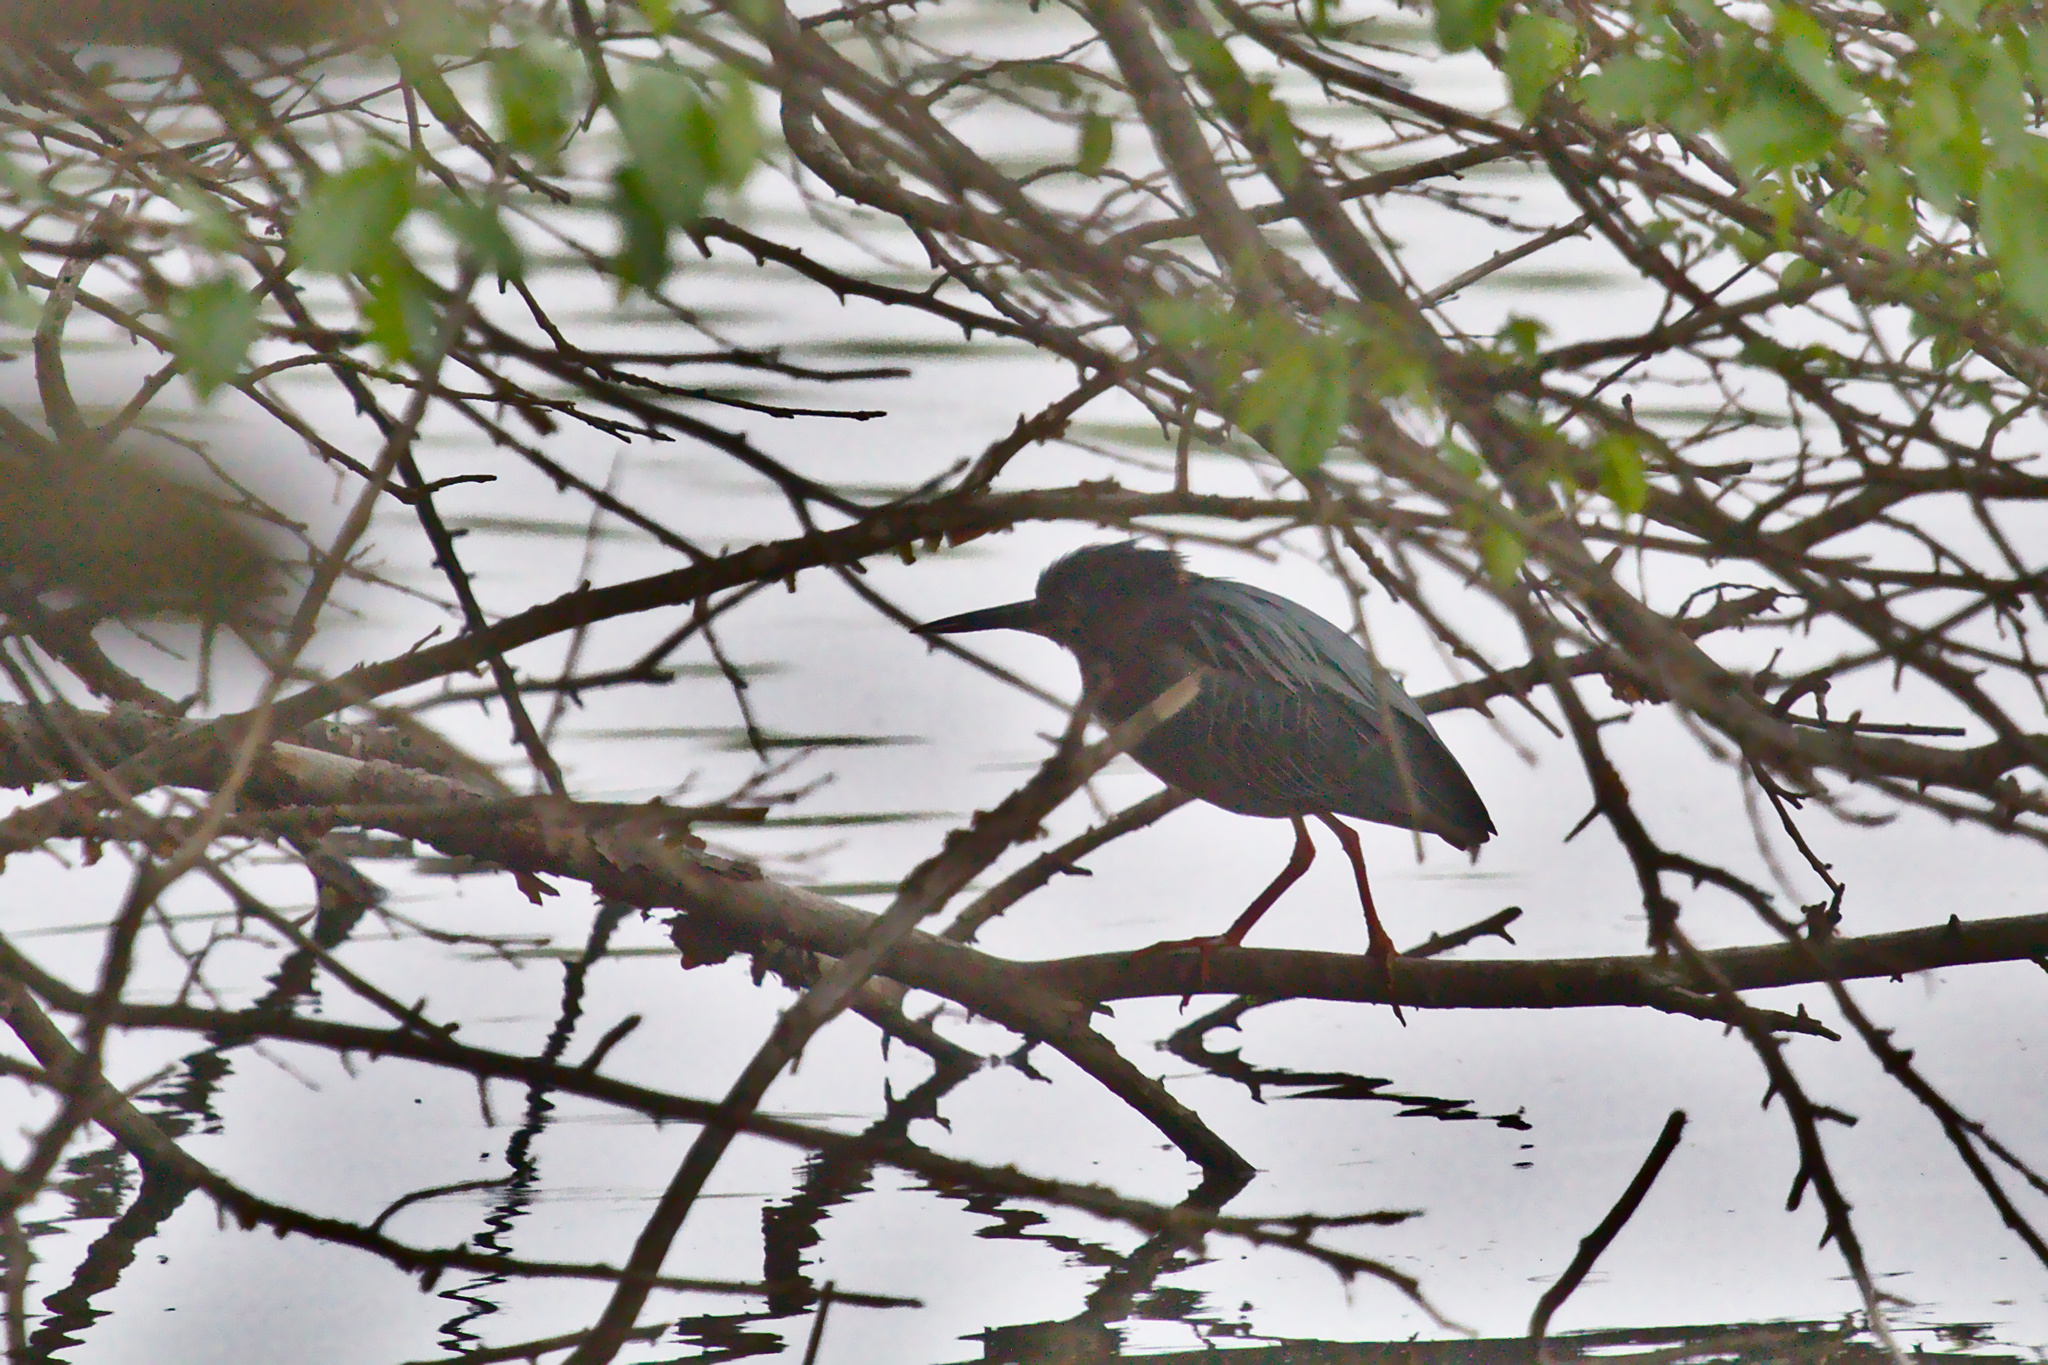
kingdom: Animalia
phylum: Chordata
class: Aves
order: Pelecaniformes
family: Ardeidae
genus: Butorides
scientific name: Butorides virescens
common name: Green heron
